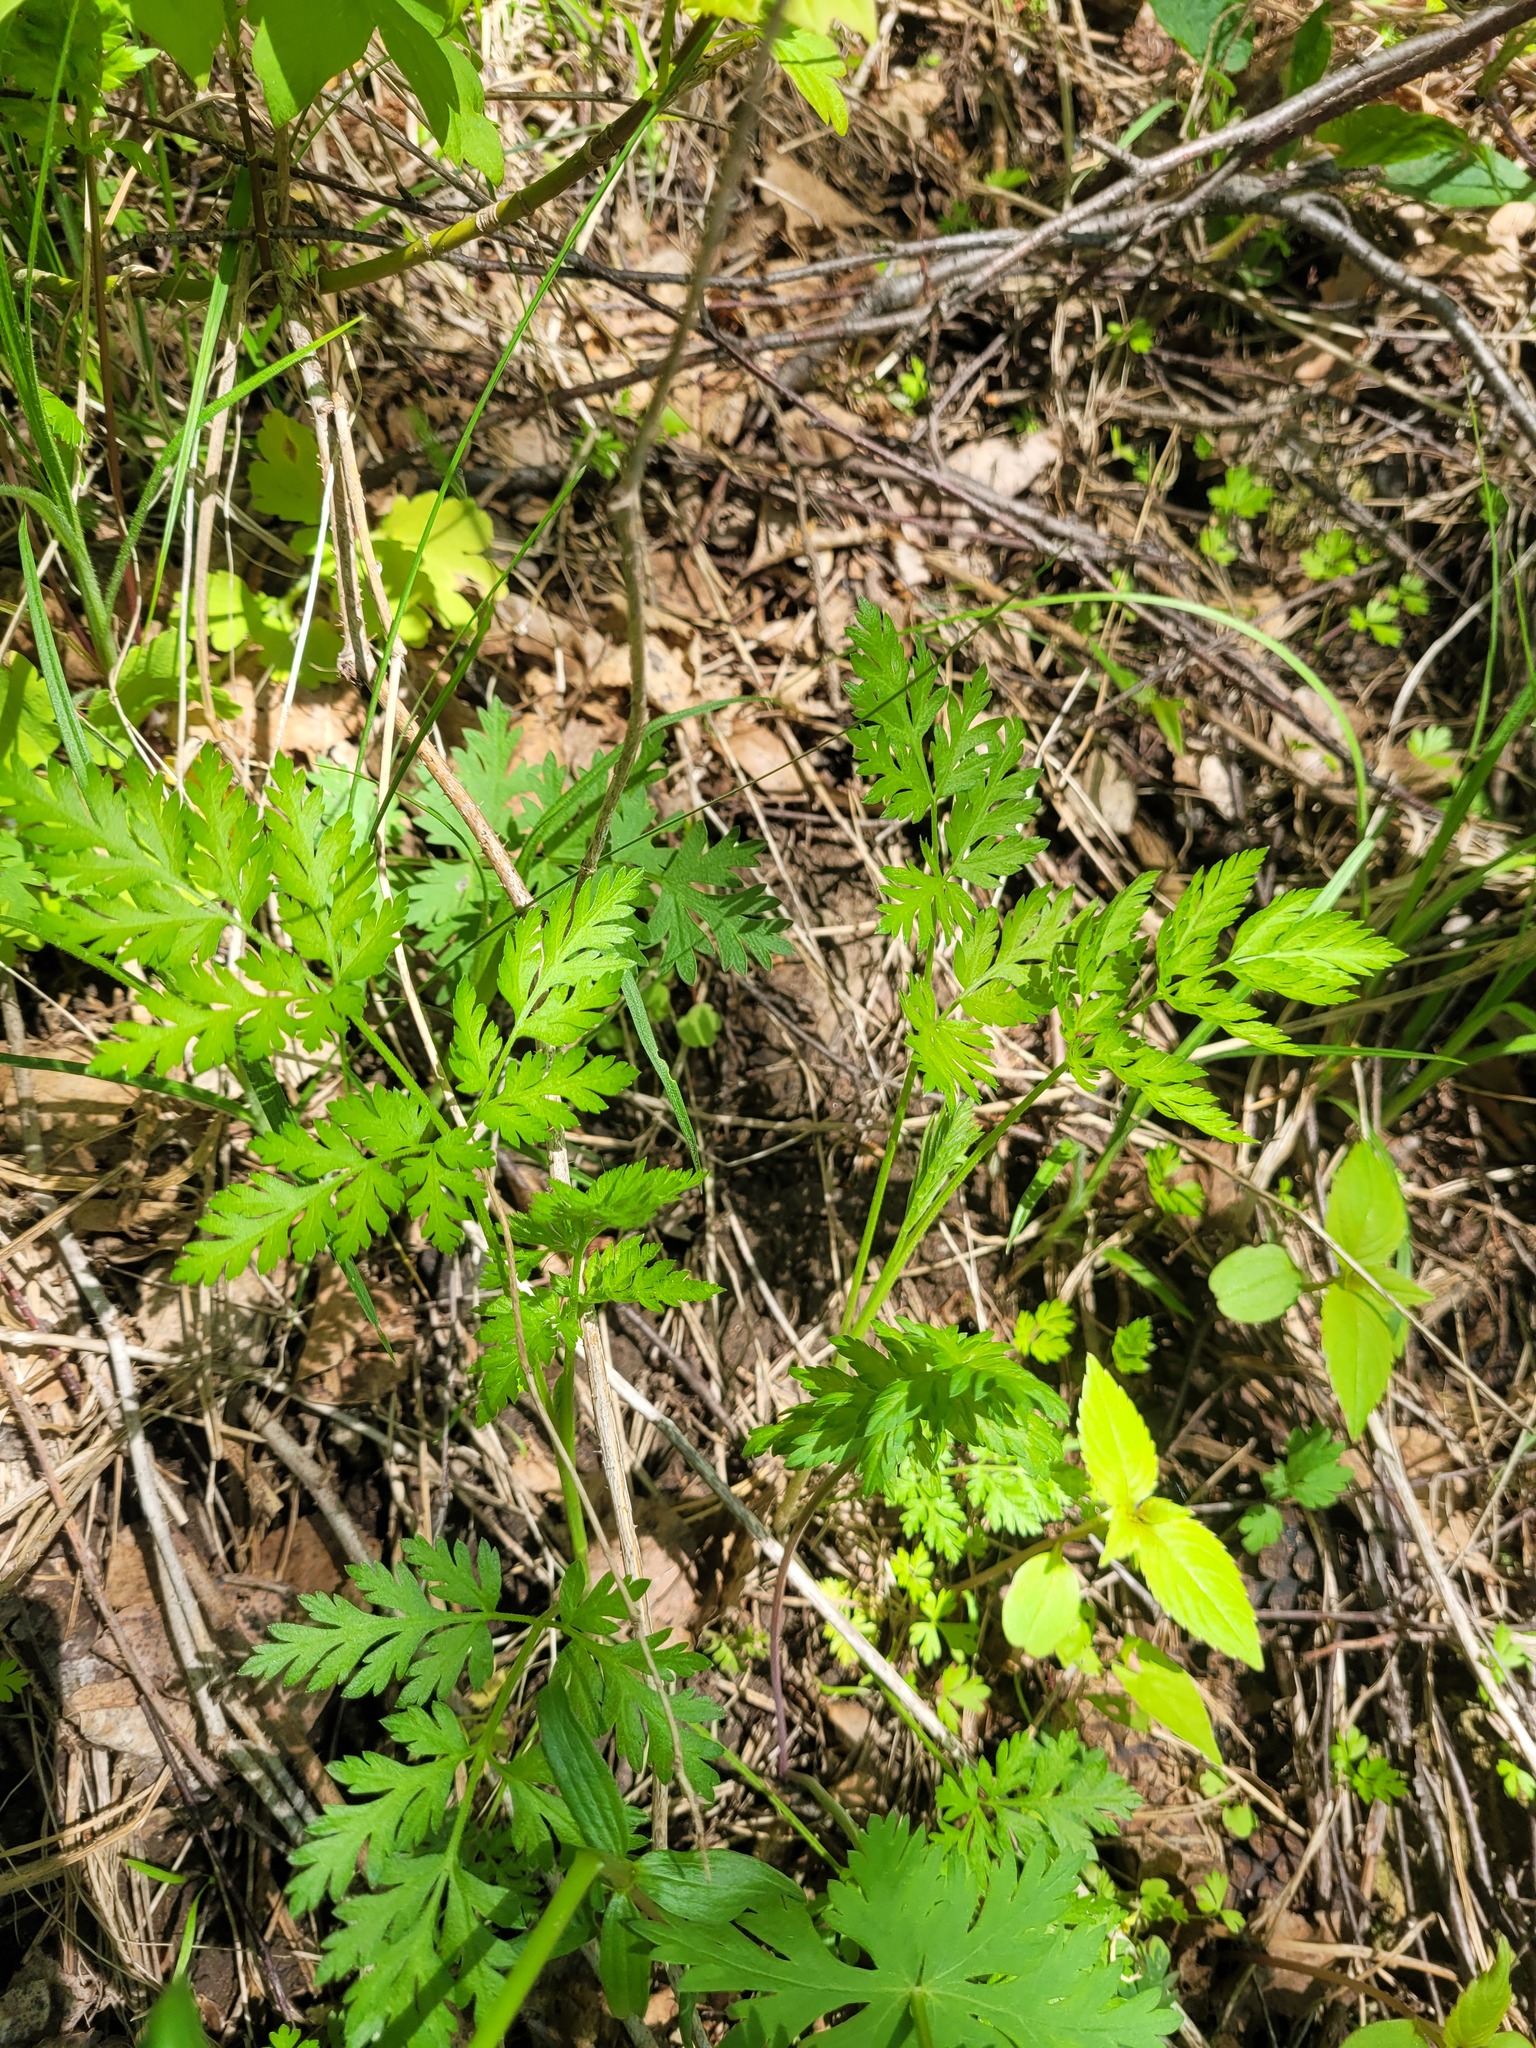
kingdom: Plantae
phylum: Tracheophyta
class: Magnoliopsida
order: Apiales
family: Apiaceae
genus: Torilis
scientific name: Torilis japonica
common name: Upright hedge-parsley
